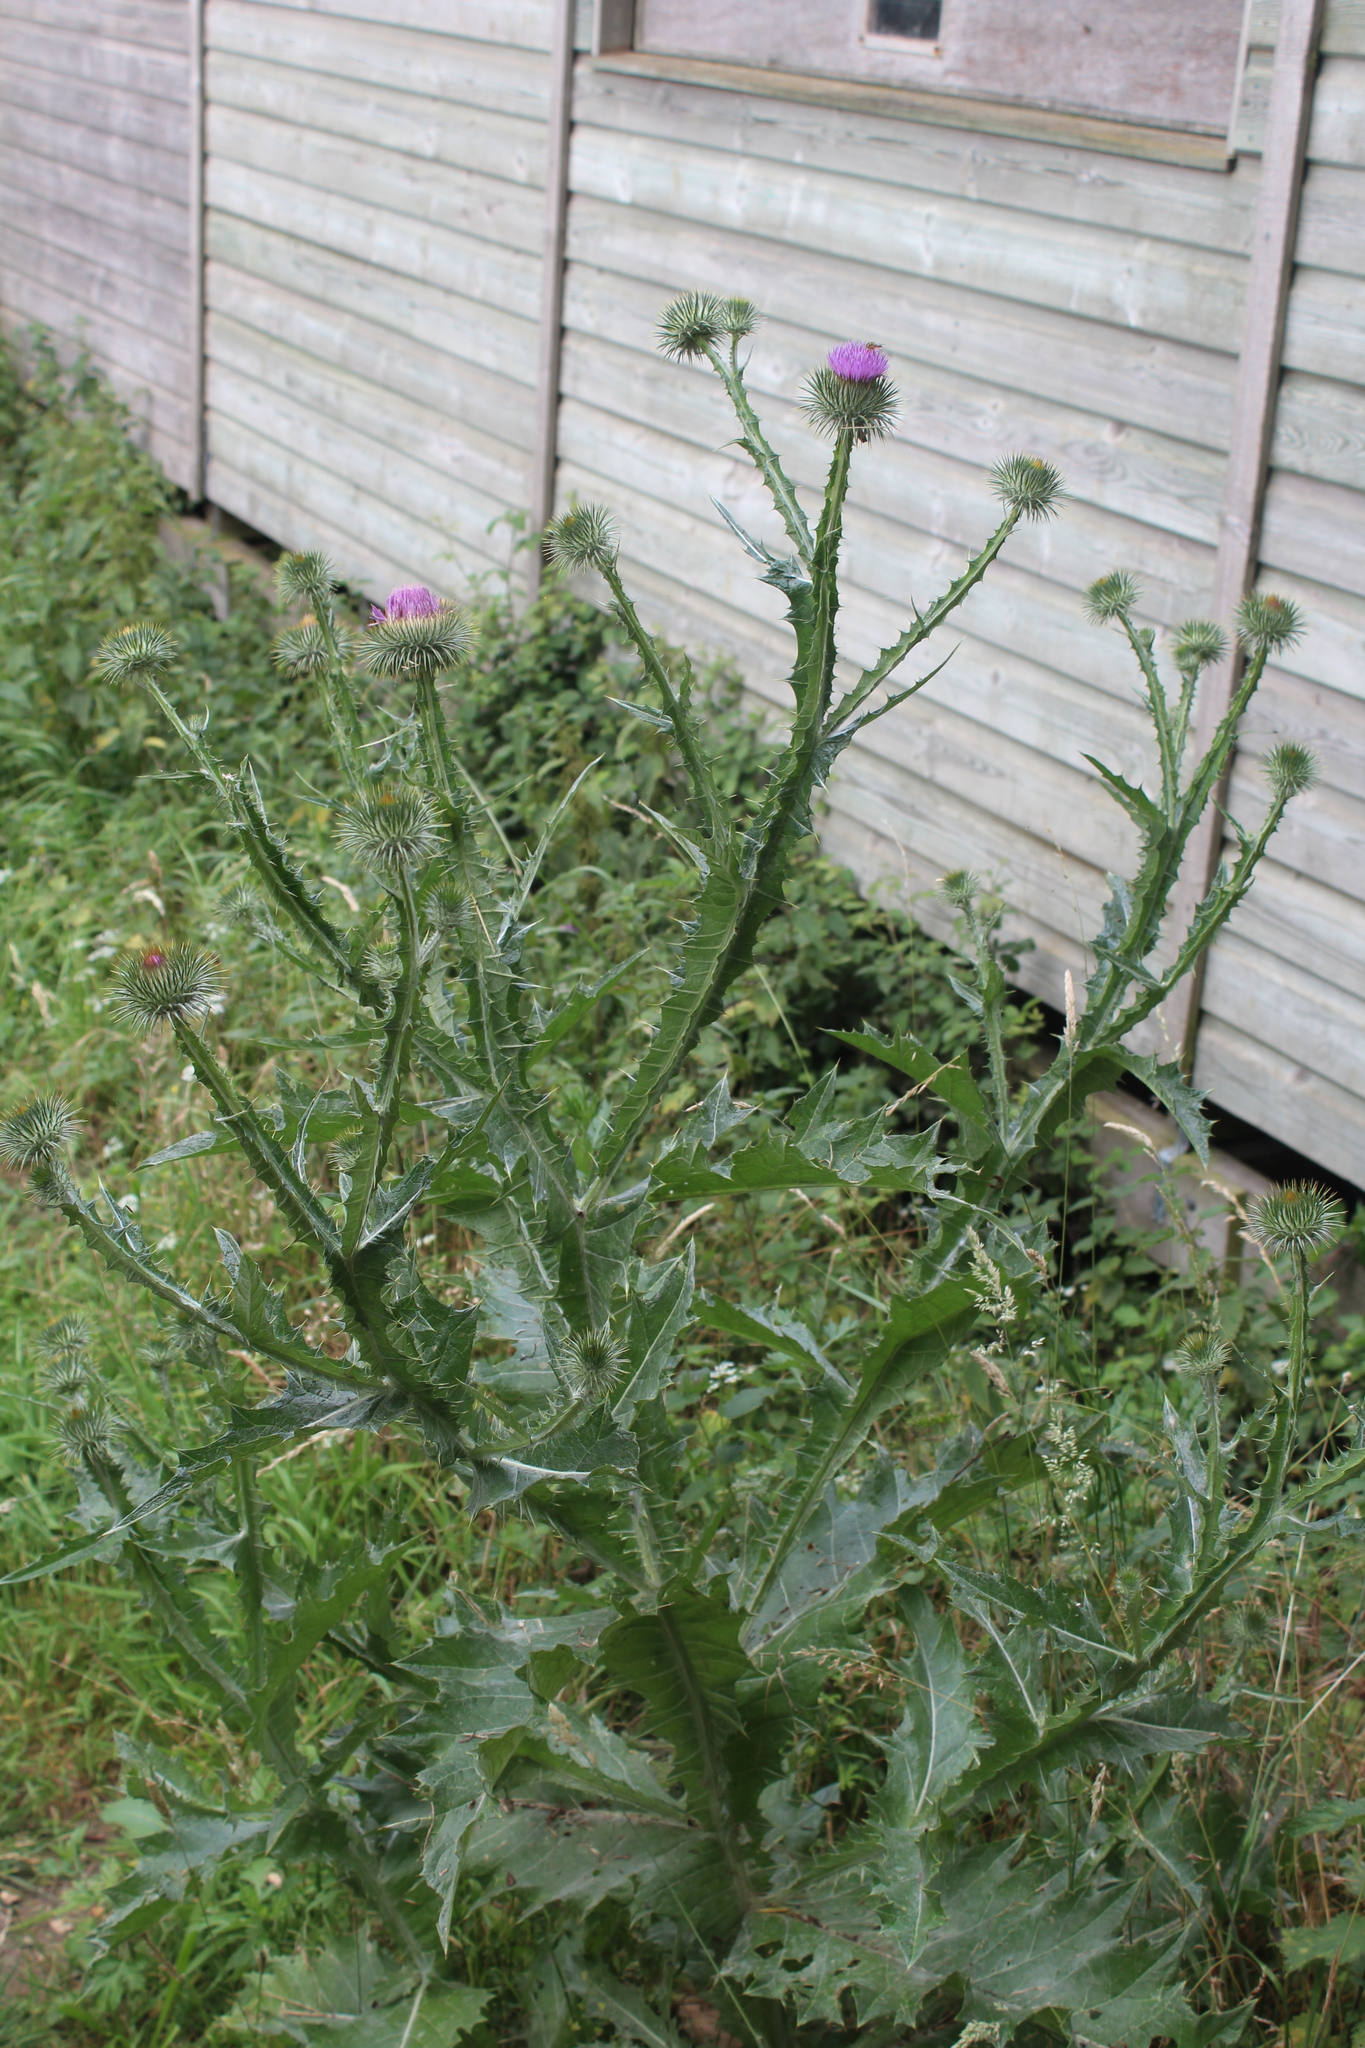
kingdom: Plantae
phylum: Tracheophyta
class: Magnoliopsida
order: Asterales
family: Asteraceae
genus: Onopordum
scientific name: Onopordum acanthium
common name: Scotch thistle
